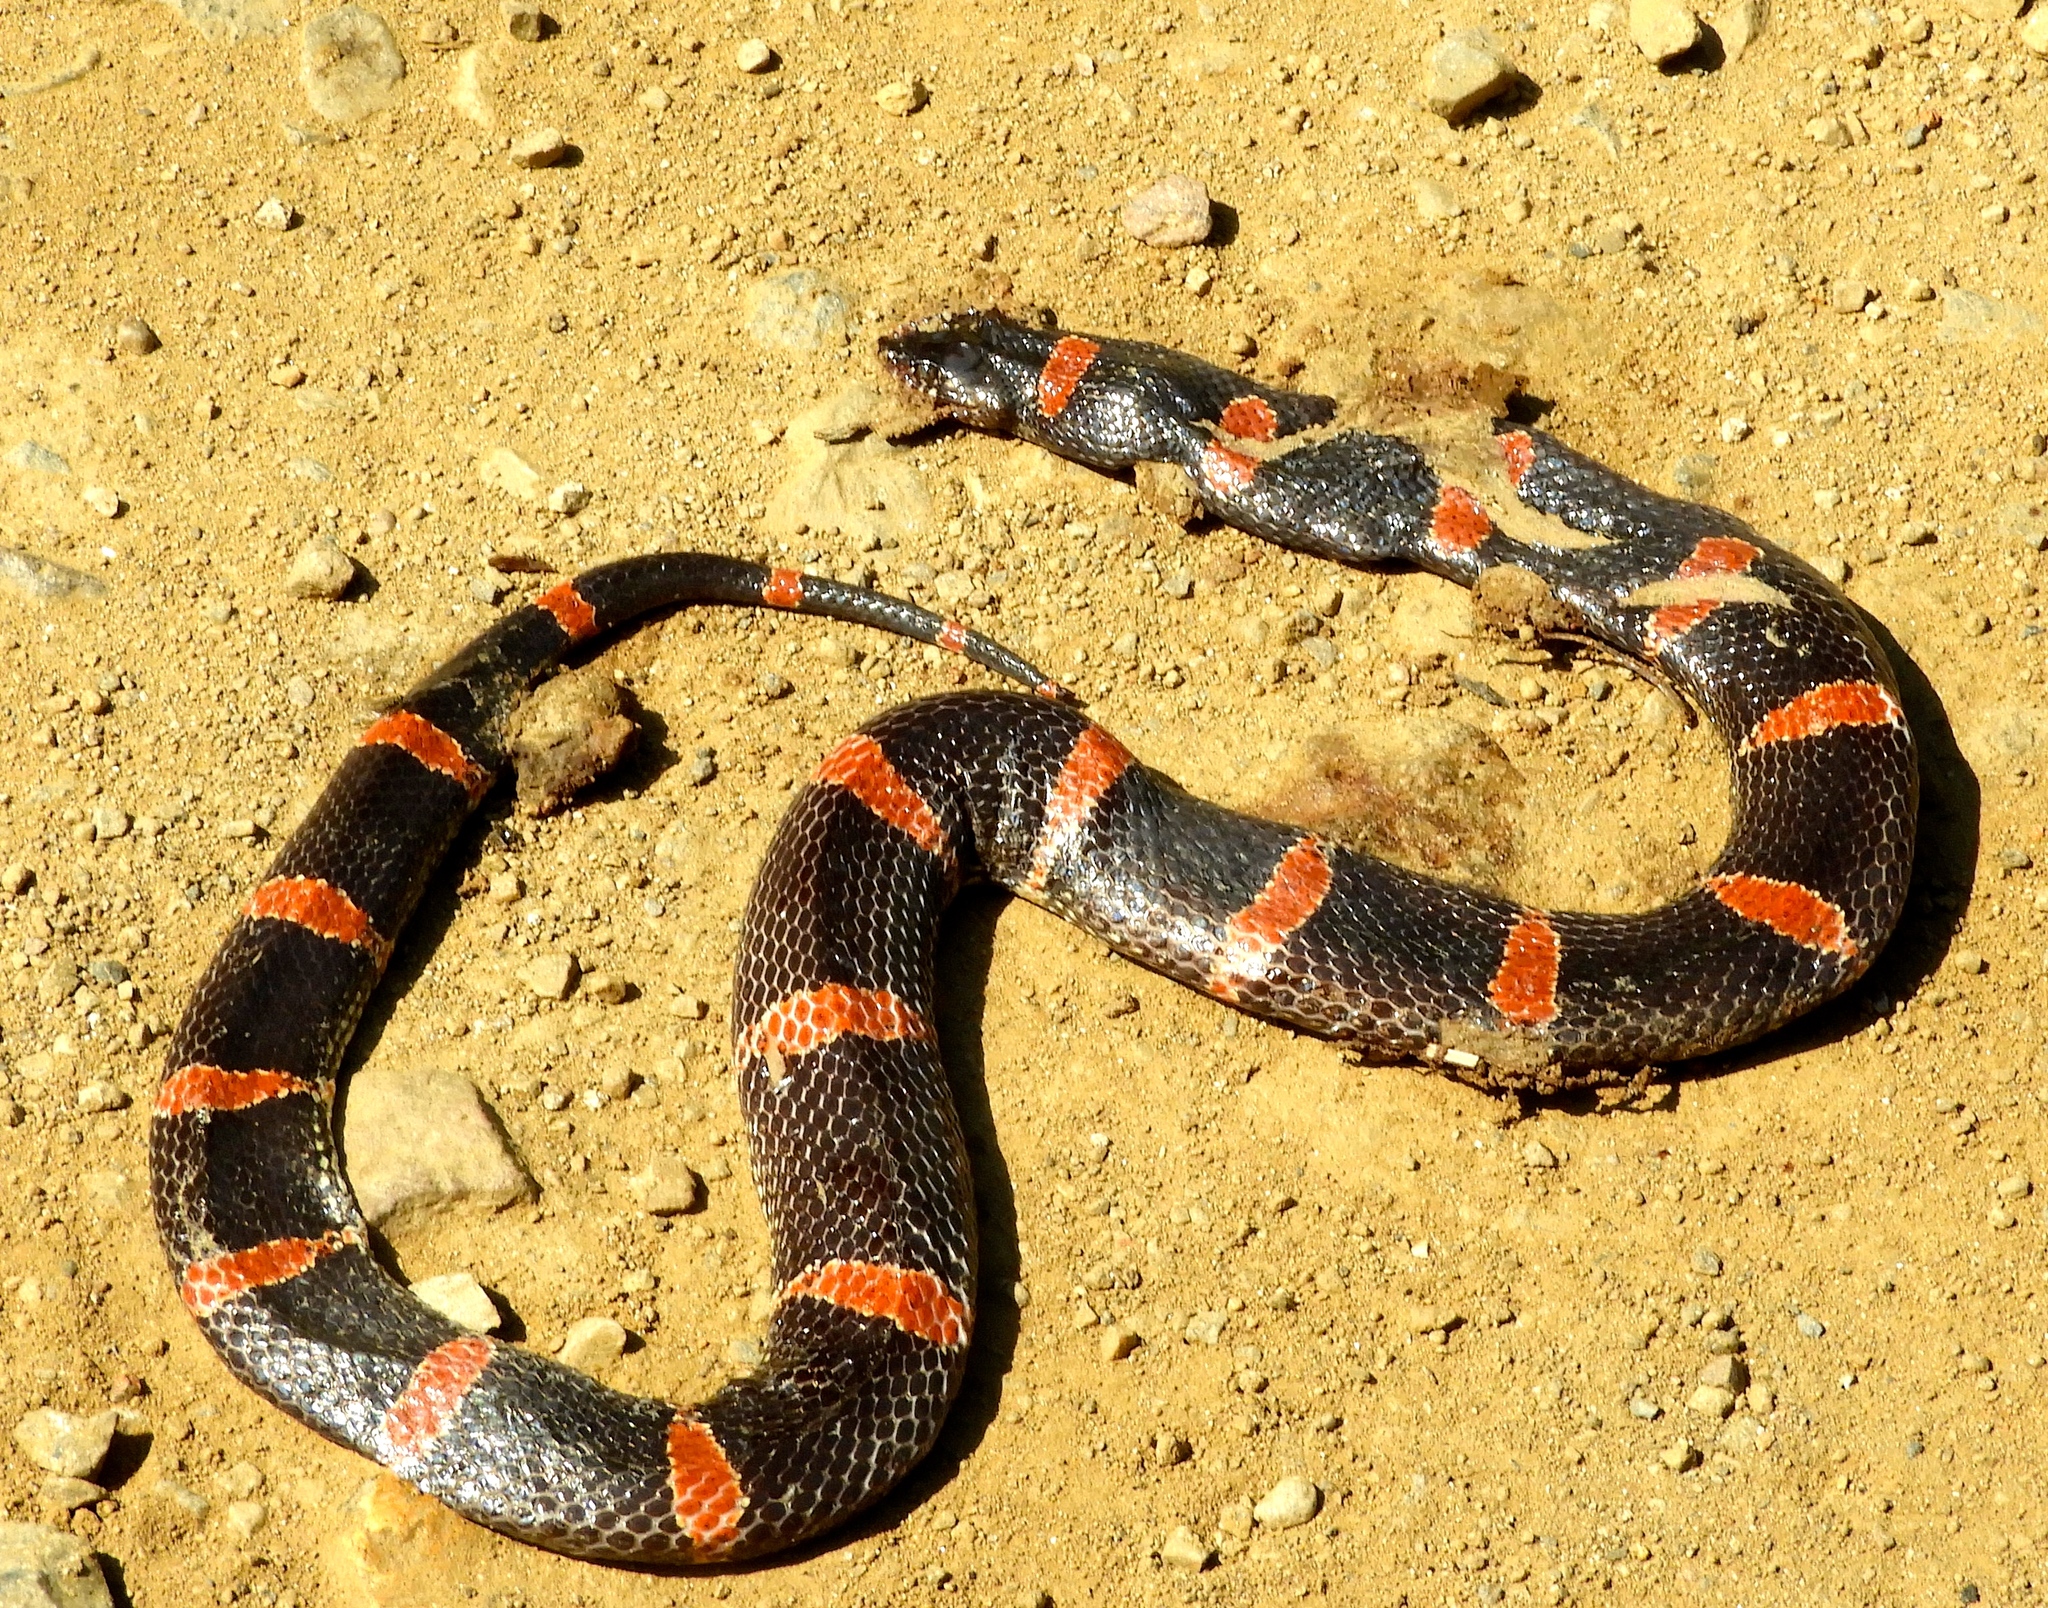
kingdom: Animalia
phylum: Chordata
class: Squamata
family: Colubridae
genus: Rhinocheilus
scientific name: Rhinocheilus antonii
